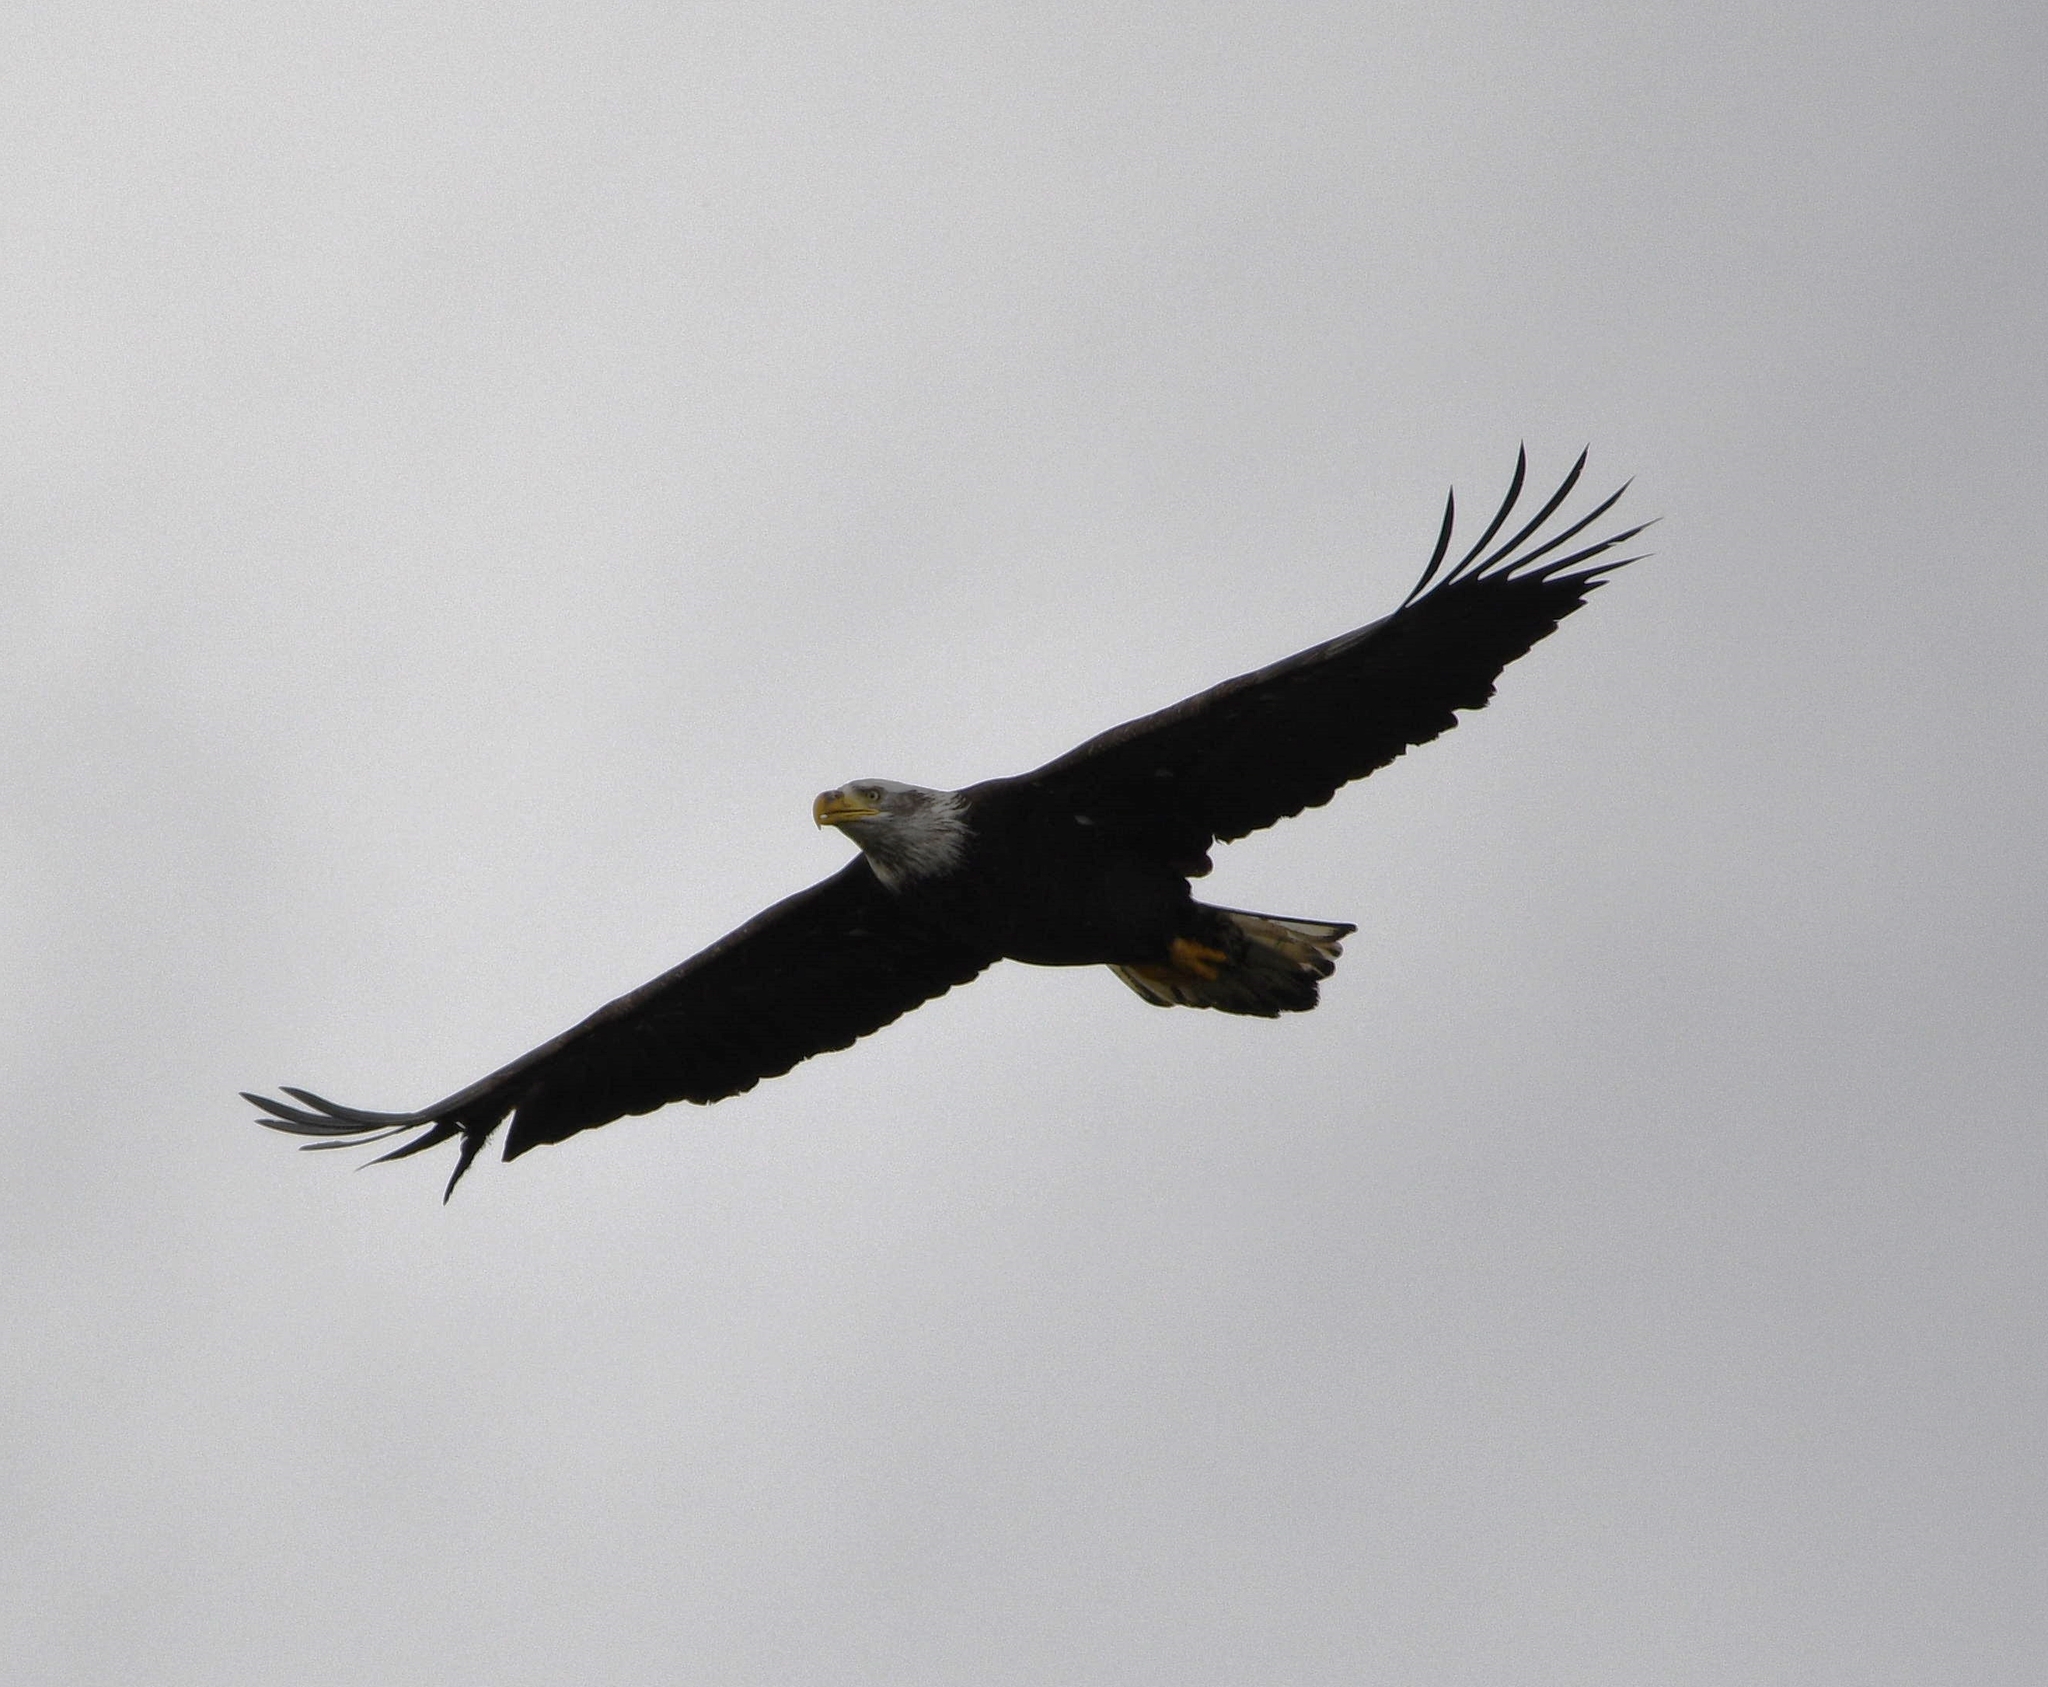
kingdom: Animalia
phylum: Chordata
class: Aves
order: Accipitriformes
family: Accipitridae
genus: Haliaeetus
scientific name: Haliaeetus leucocephalus
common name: Bald eagle
